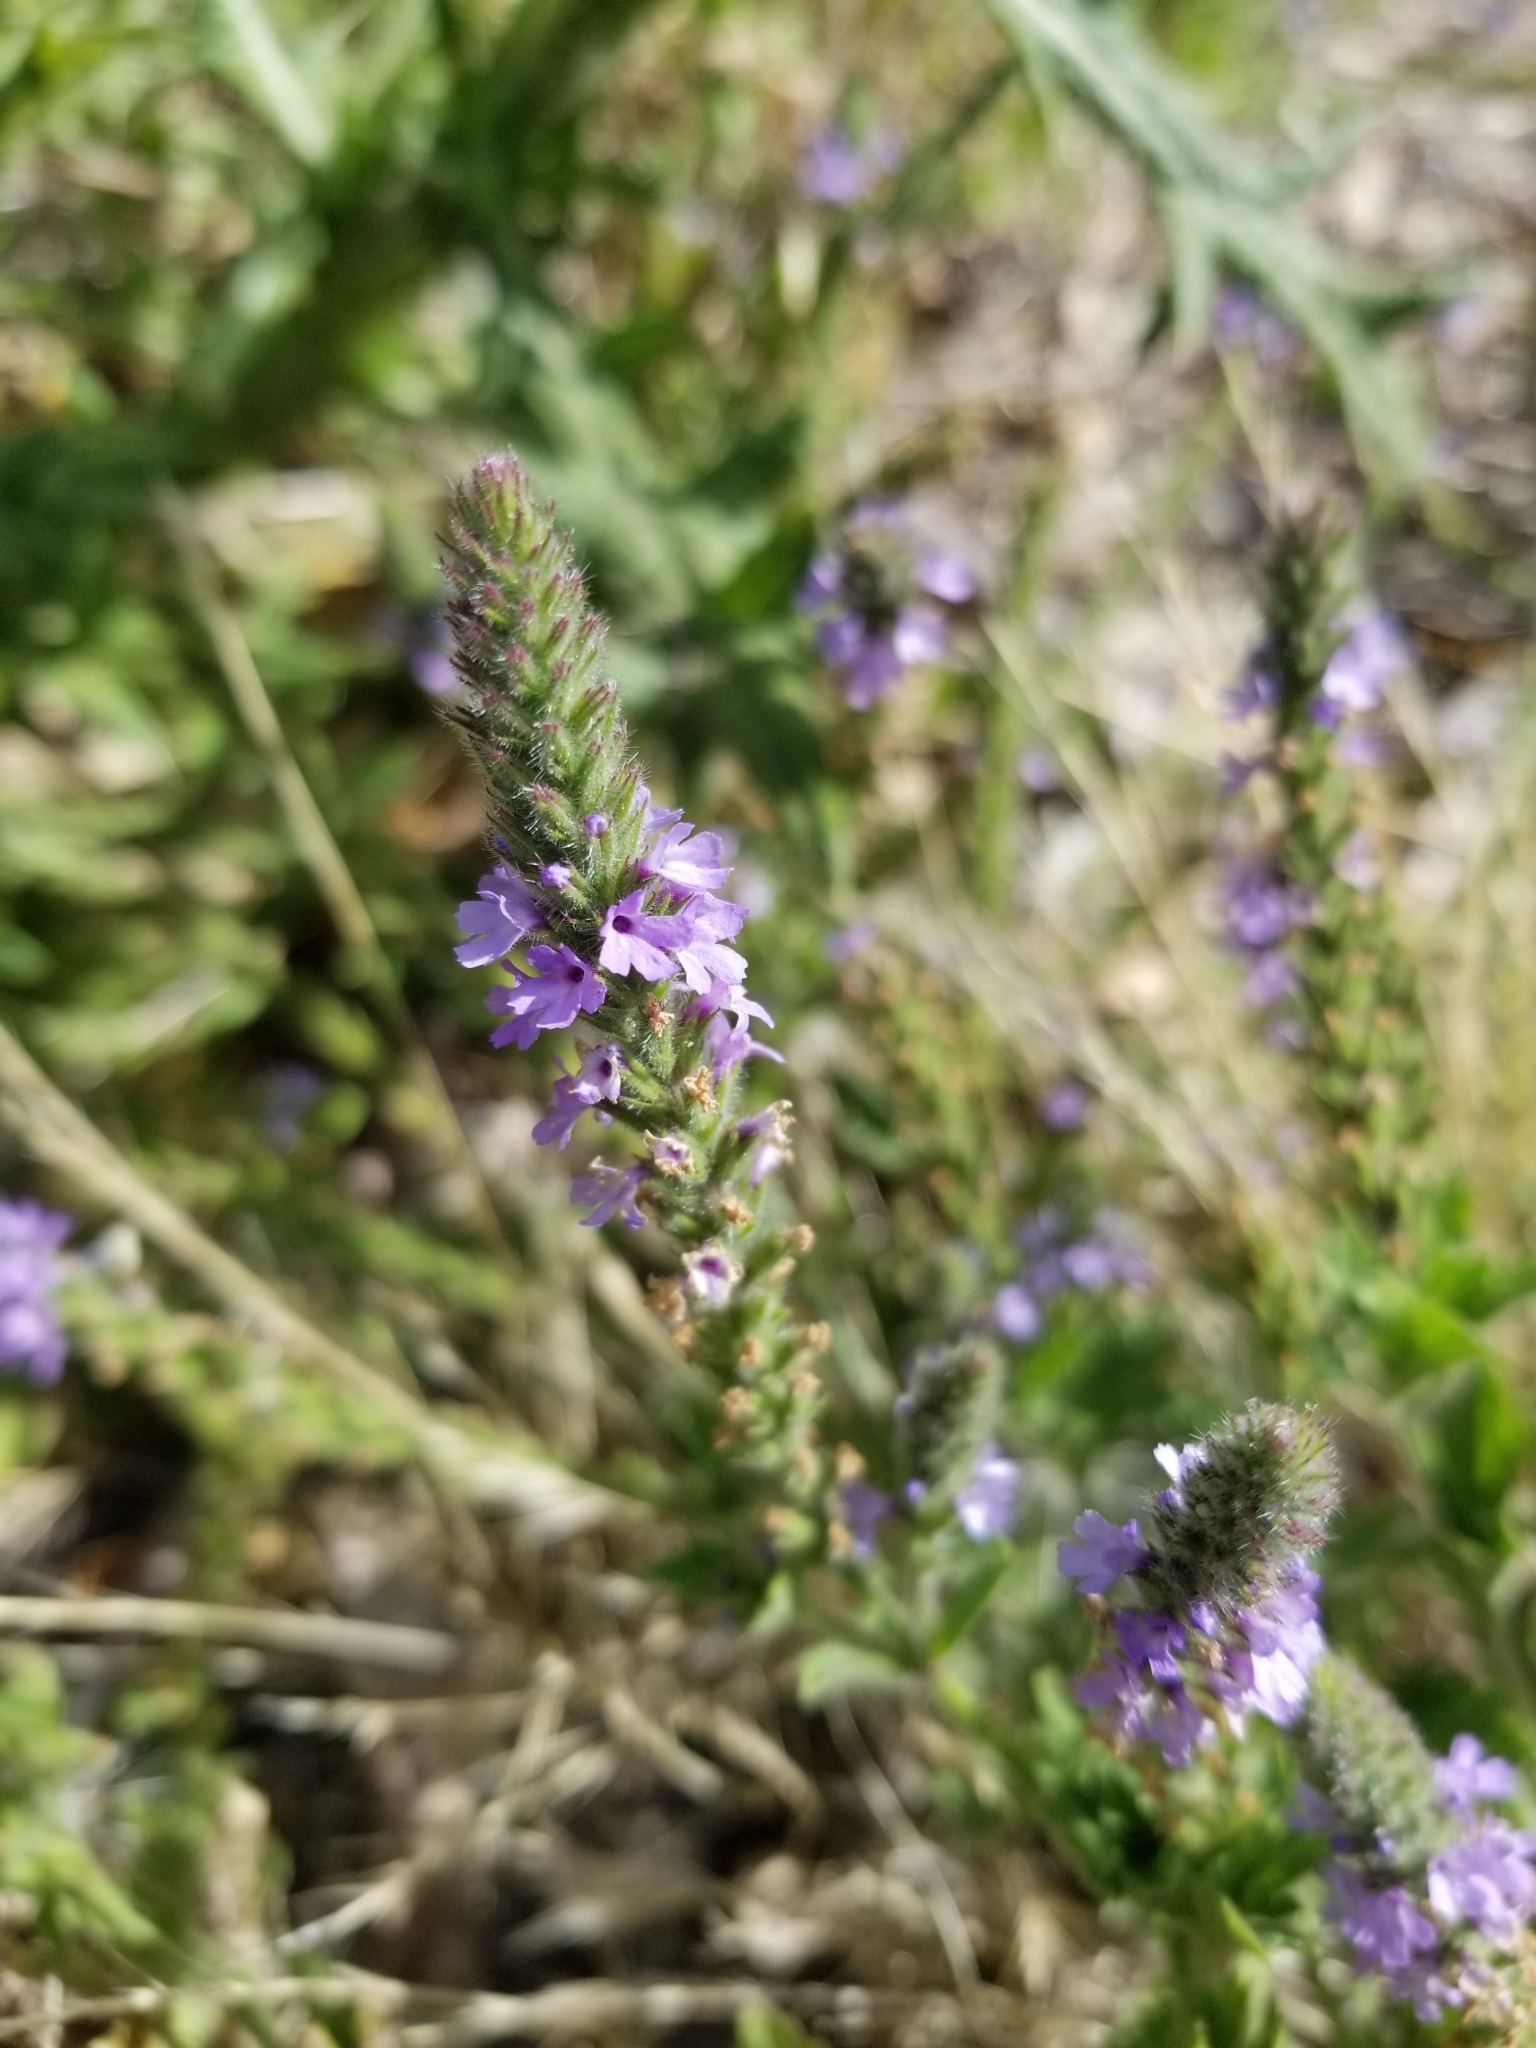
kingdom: Plantae
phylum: Tracheophyta
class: Magnoliopsida
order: Lamiales
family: Verbenaceae
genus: Verbena
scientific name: Verbena lasiostachys
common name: Vervain
